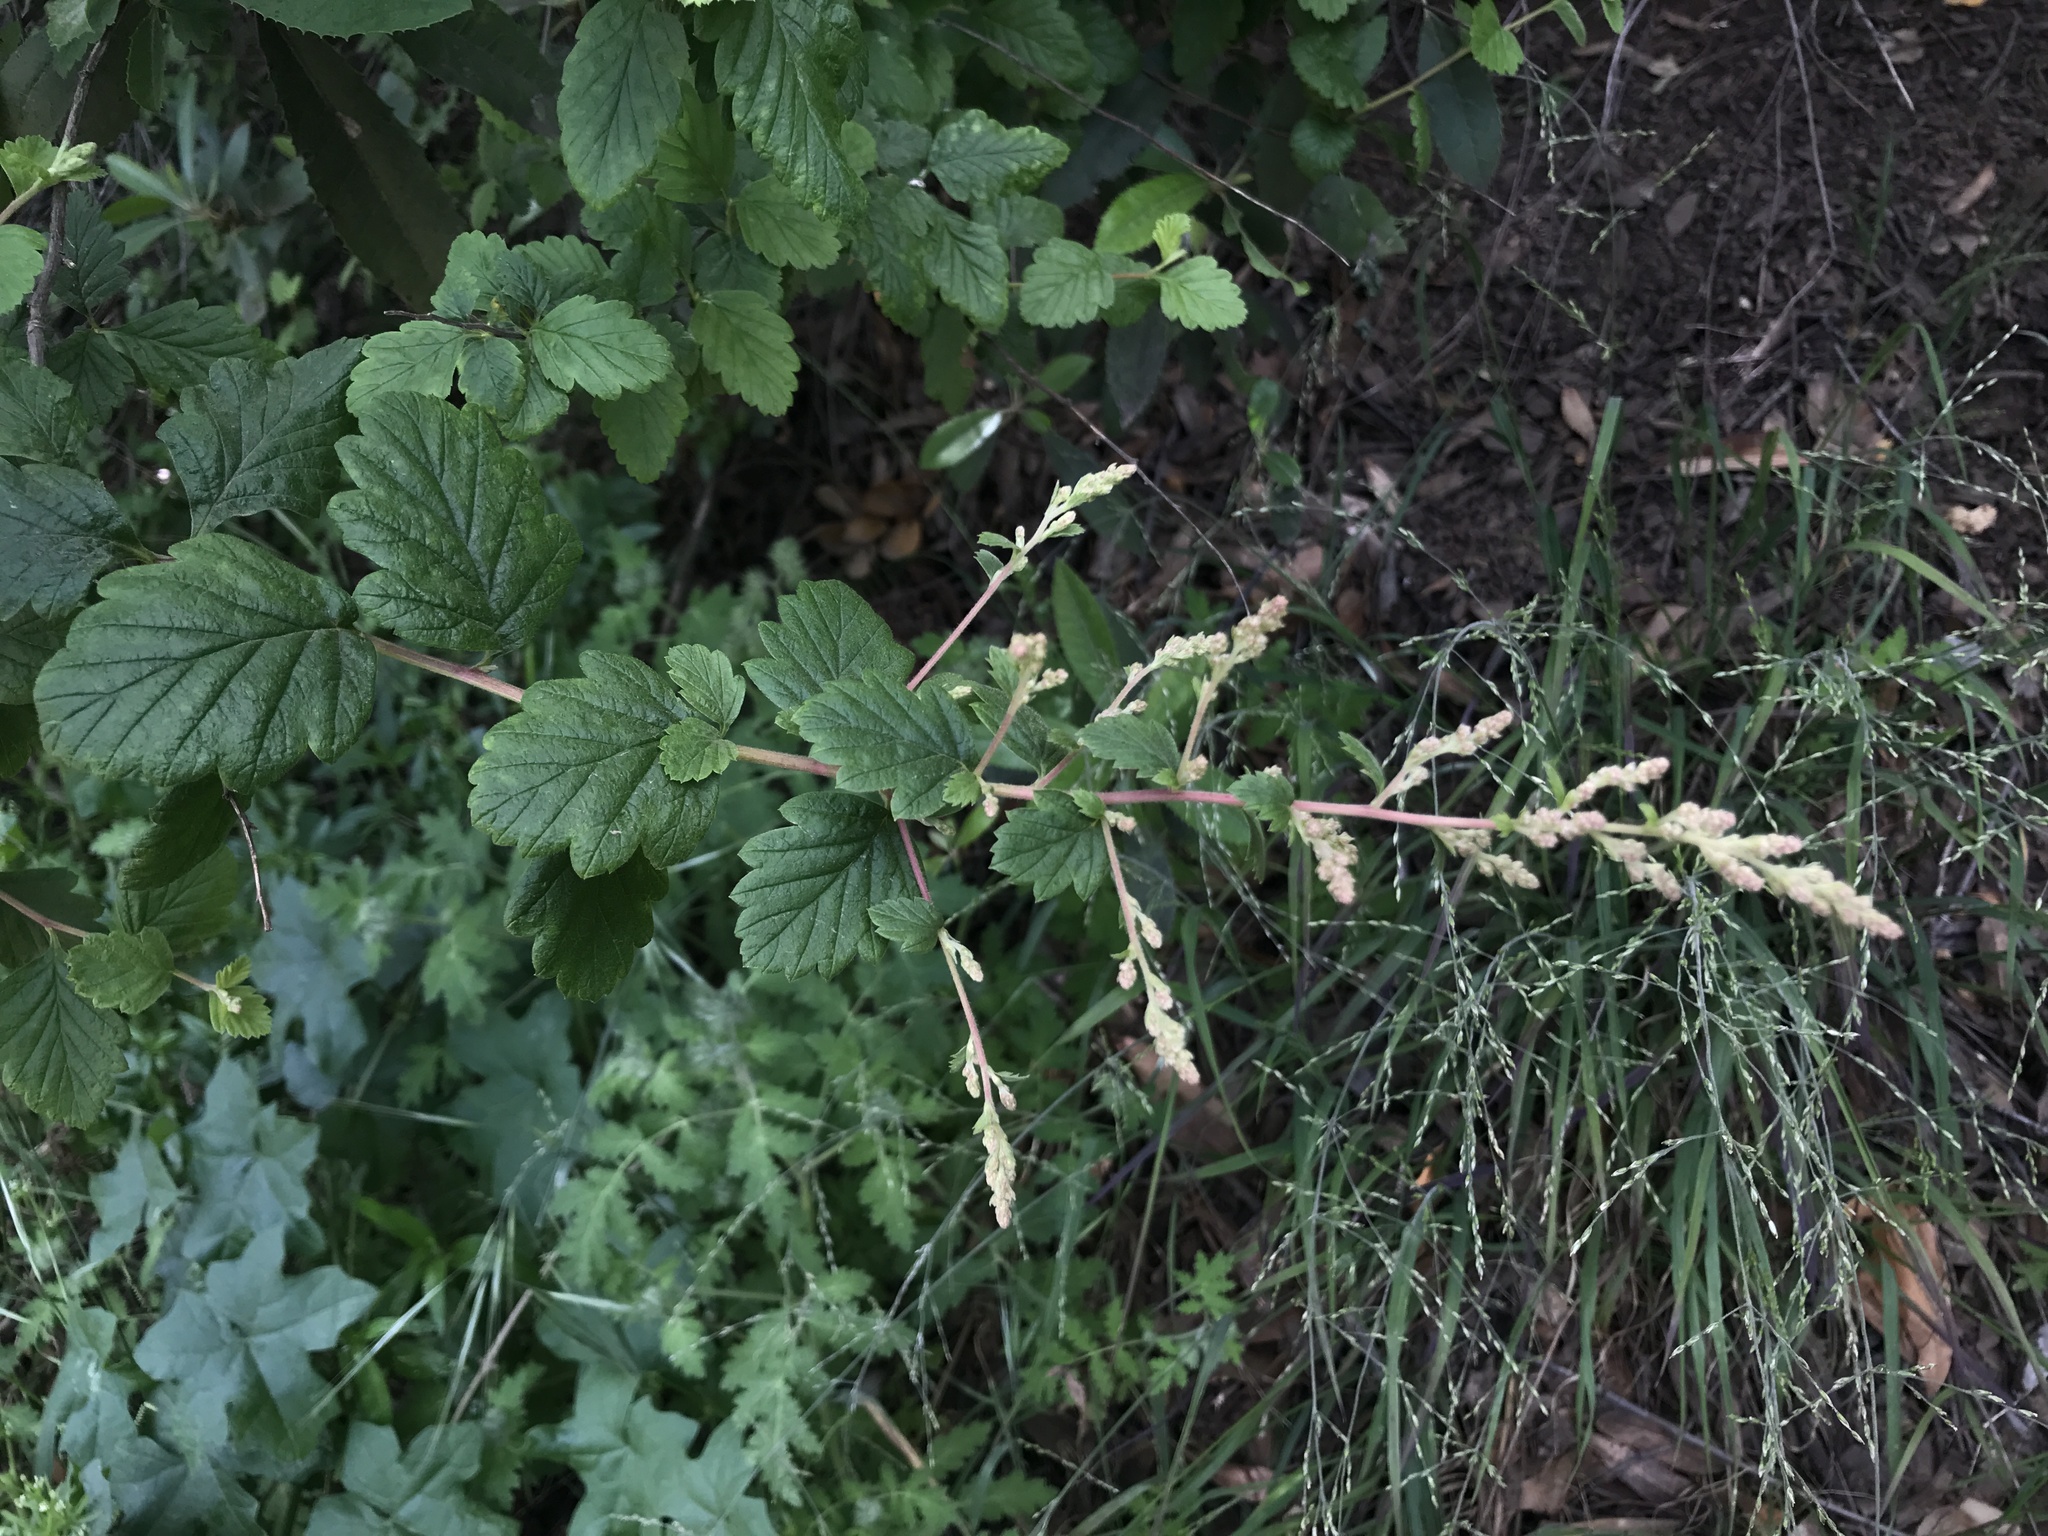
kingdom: Plantae
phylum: Tracheophyta
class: Magnoliopsida
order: Rosales
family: Rosaceae
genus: Holodiscus
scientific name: Holodiscus discolor
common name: Oceanspray
